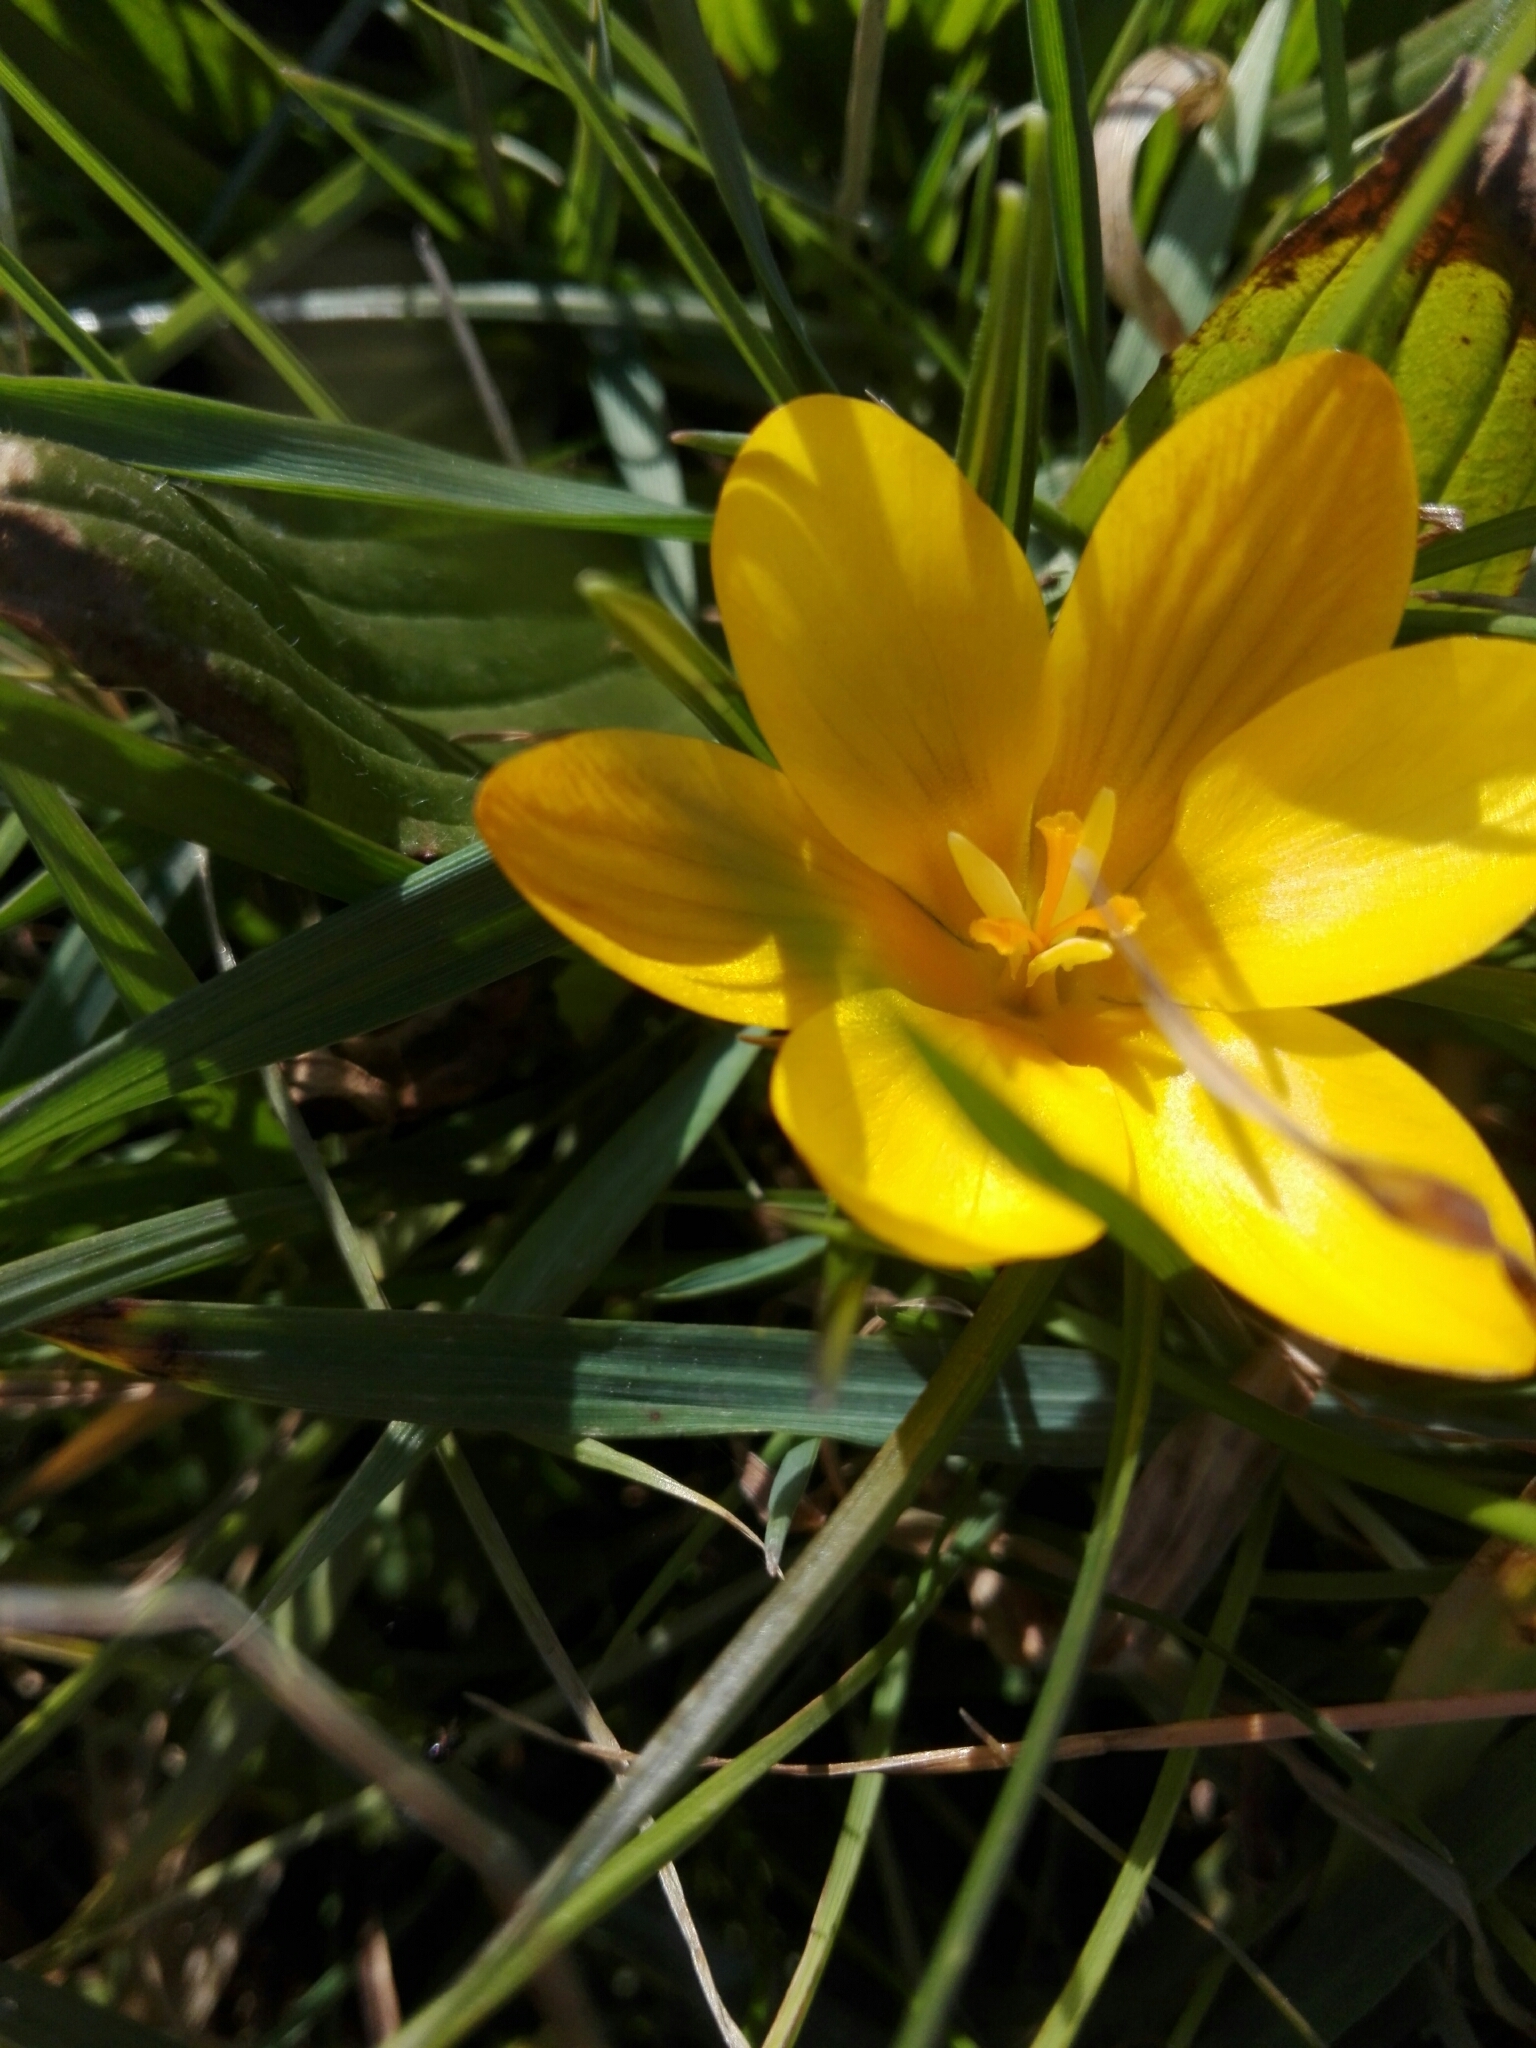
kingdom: Plantae
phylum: Tracheophyta
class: Liliopsida
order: Asparagales
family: Iridaceae
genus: Crocus
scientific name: Crocus chrysanthus
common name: Golden crocus
